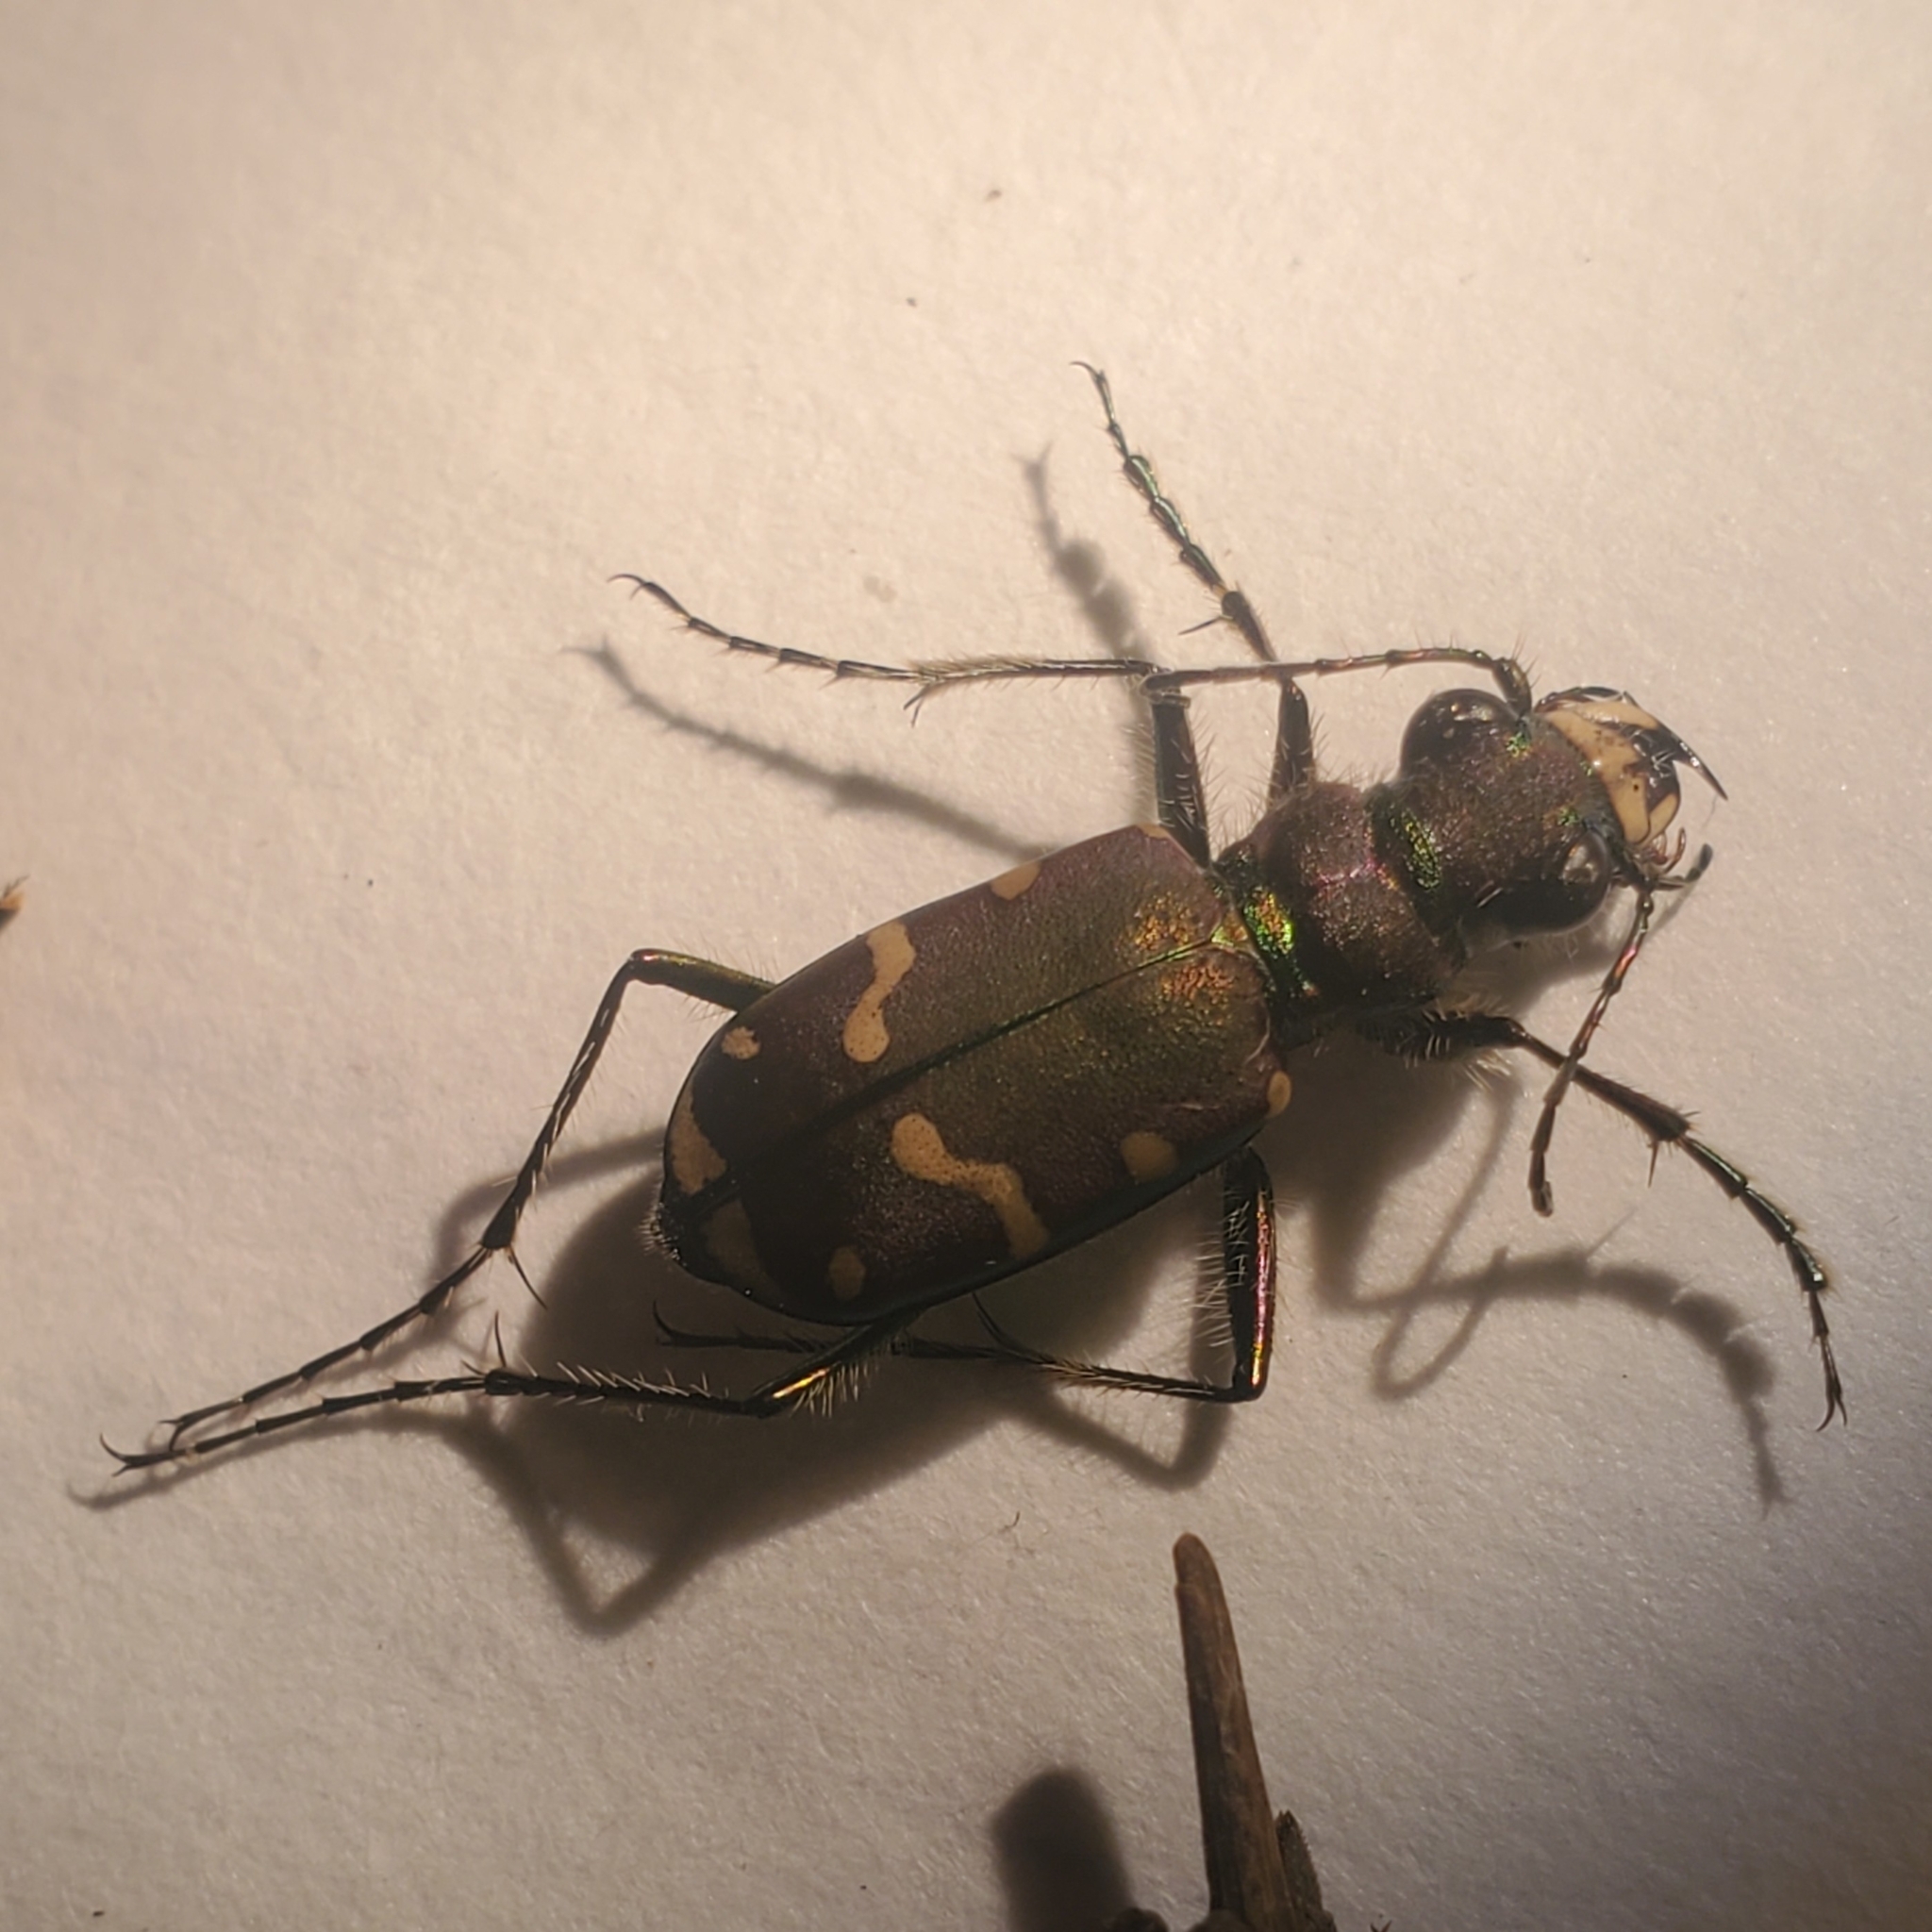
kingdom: Animalia
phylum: Arthropoda
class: Insecta
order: Coleoptera
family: Carabidae
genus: Cicindela
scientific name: Cicindela limbalis
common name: Common claybank tiger beetle
